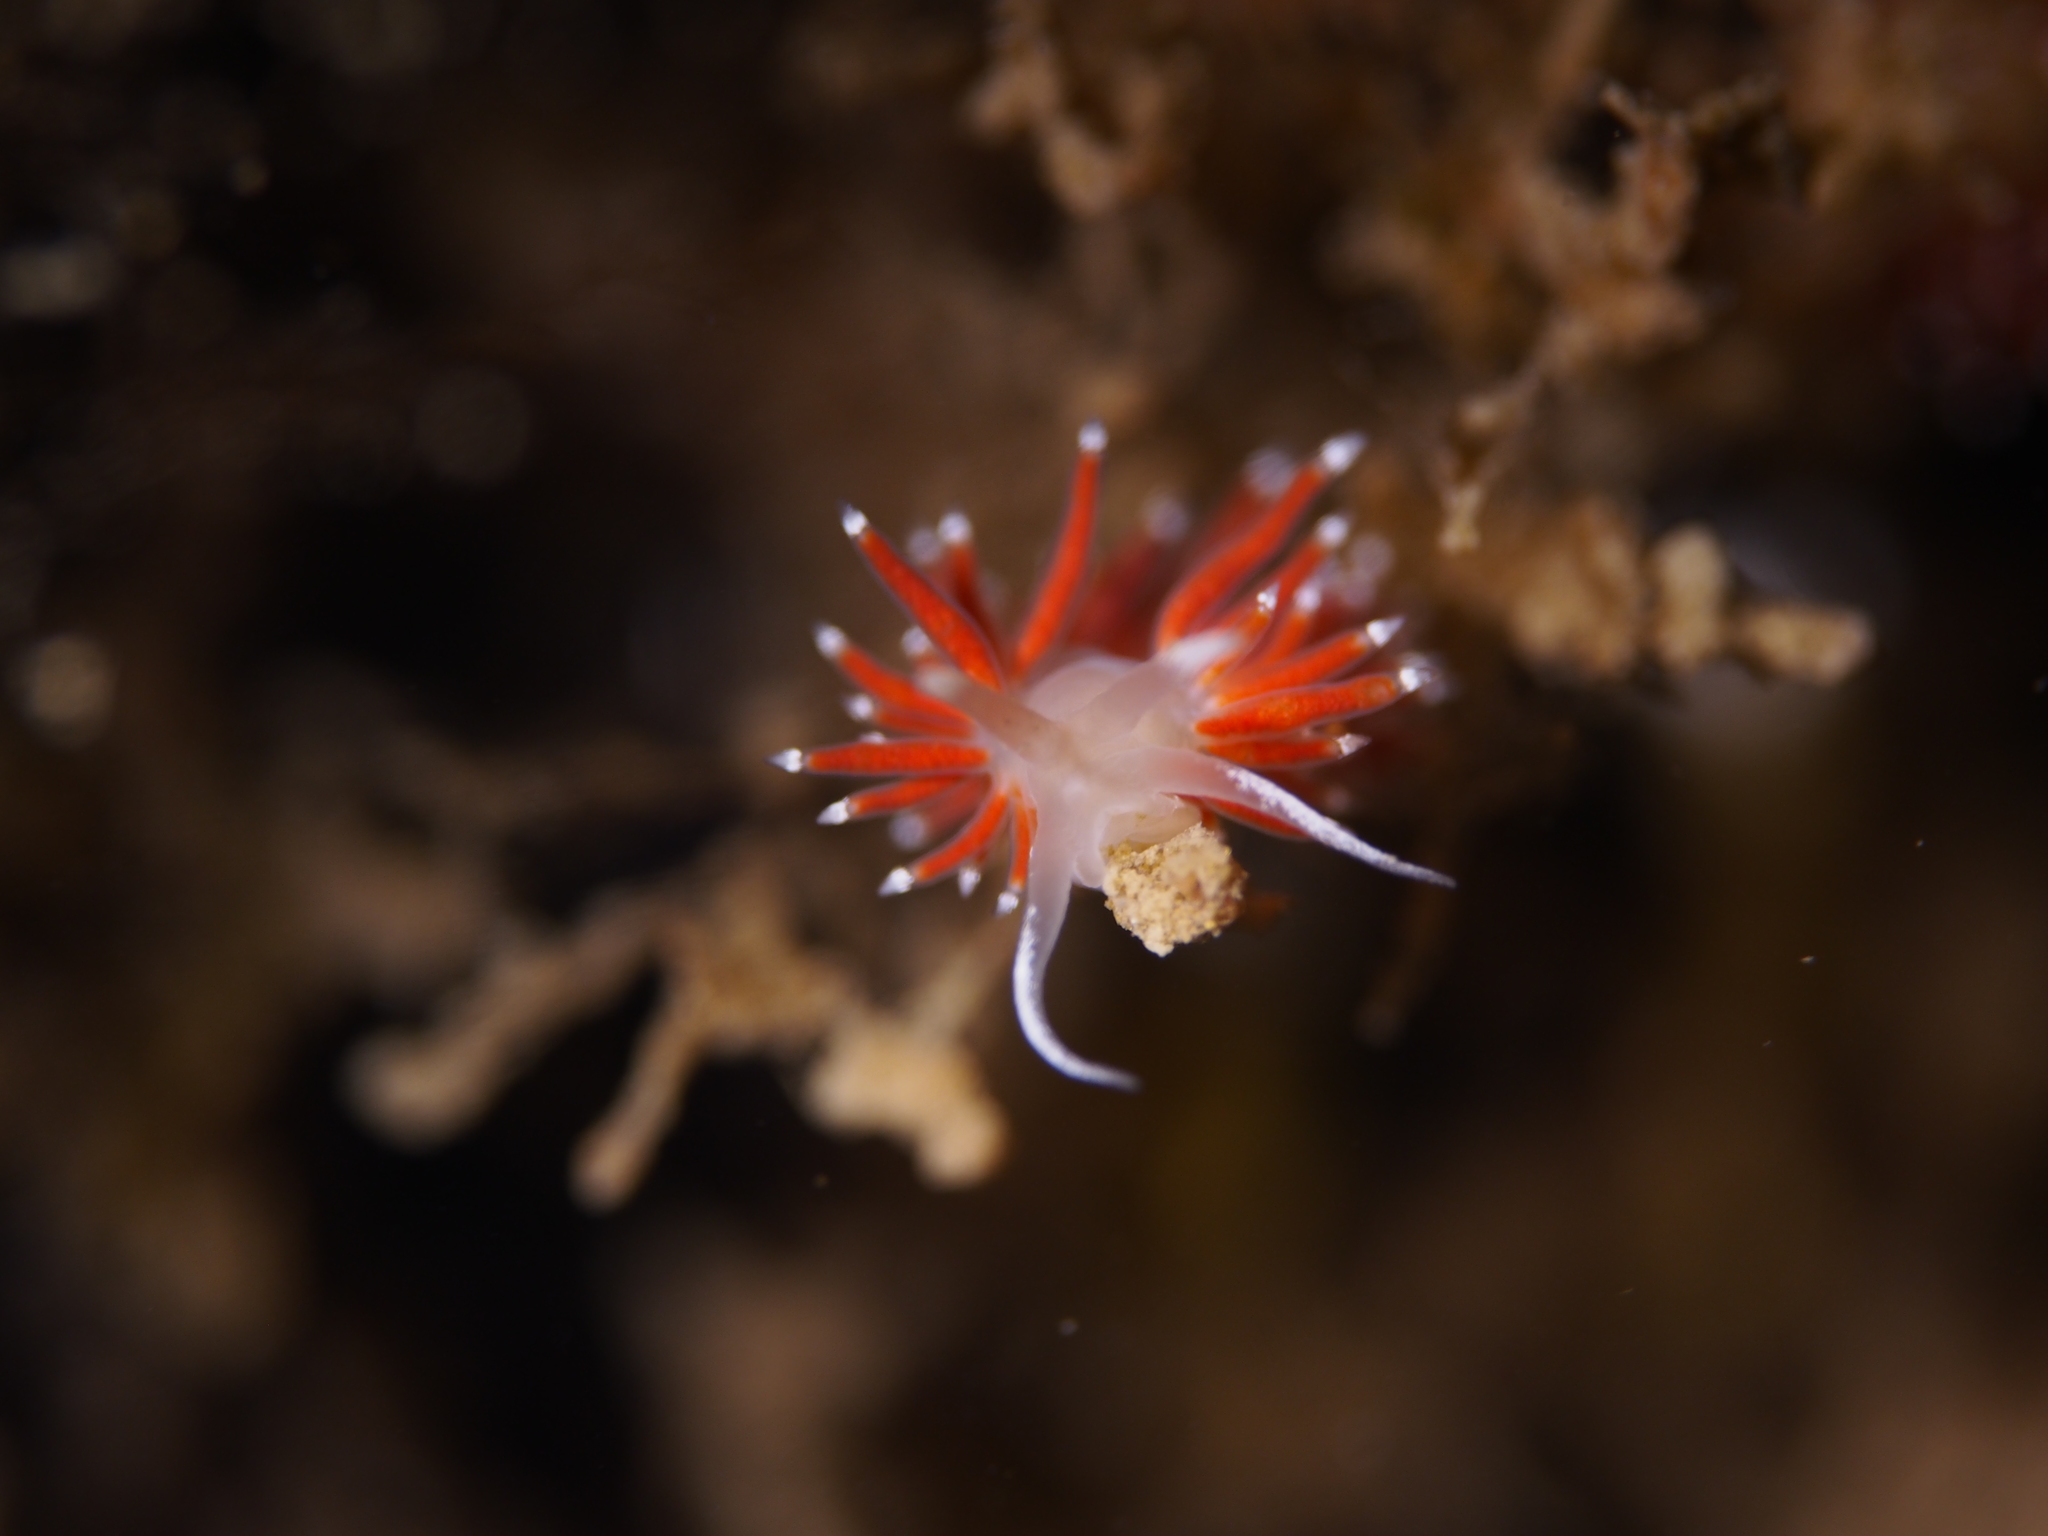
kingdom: Animalia
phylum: Mollusca
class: Gastropoda
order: Nudibranchia
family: Coryphellidae
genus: Coryphella
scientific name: Coryphella gracilis
